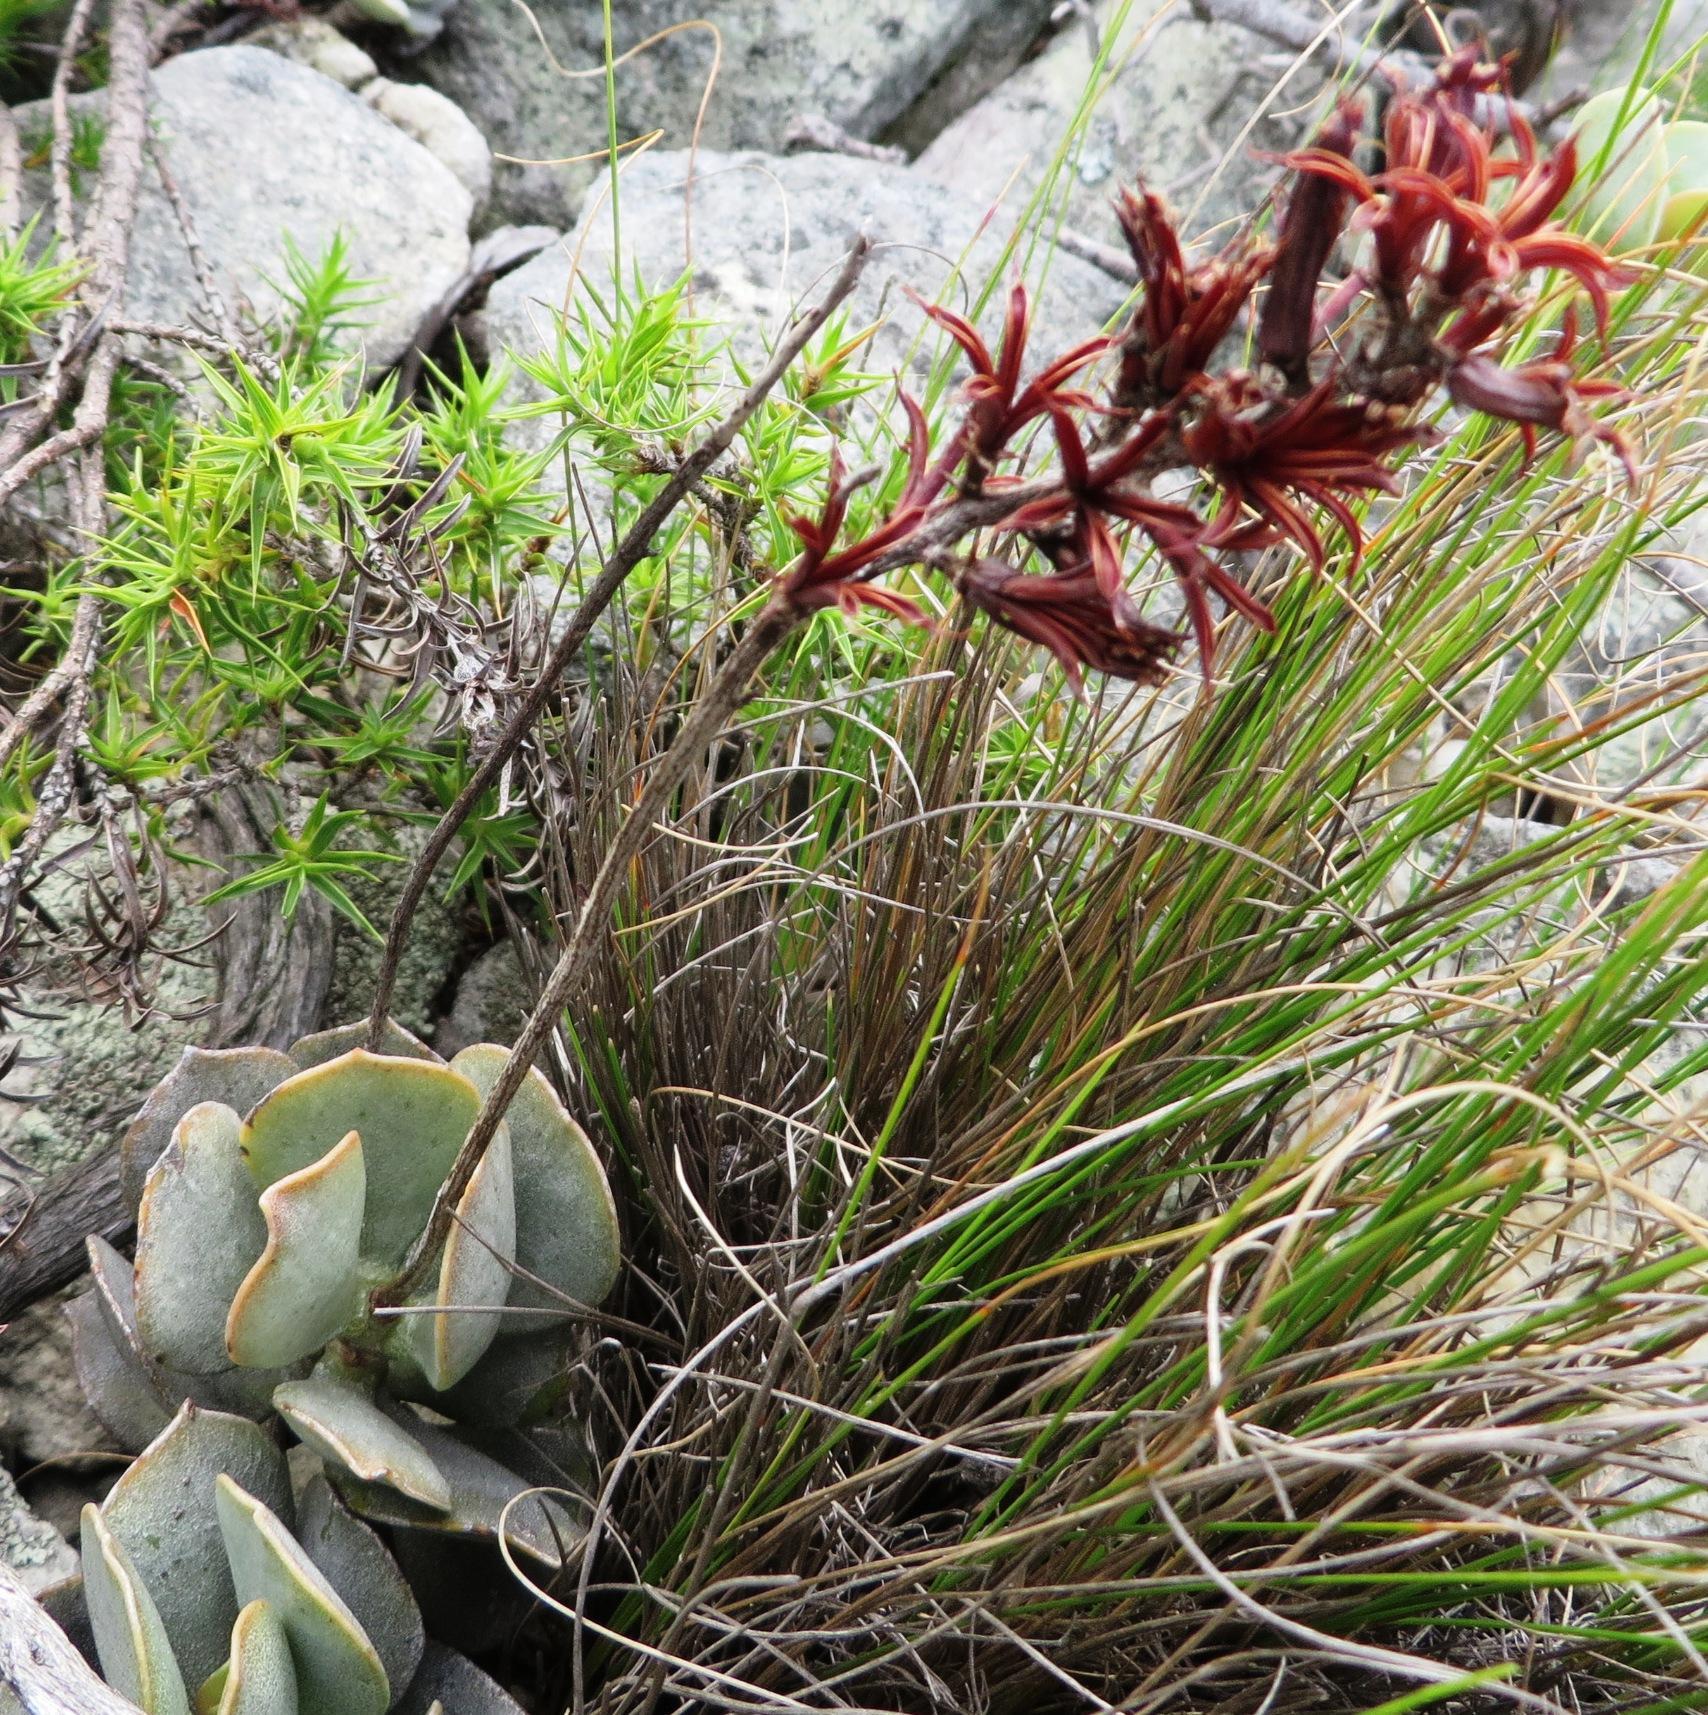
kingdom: Plantae
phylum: Tracheophyta
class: Magnoliopsida
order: Saxifragales
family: Crassulaceae
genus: Adromischus
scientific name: Adromischus hemisphaericus
